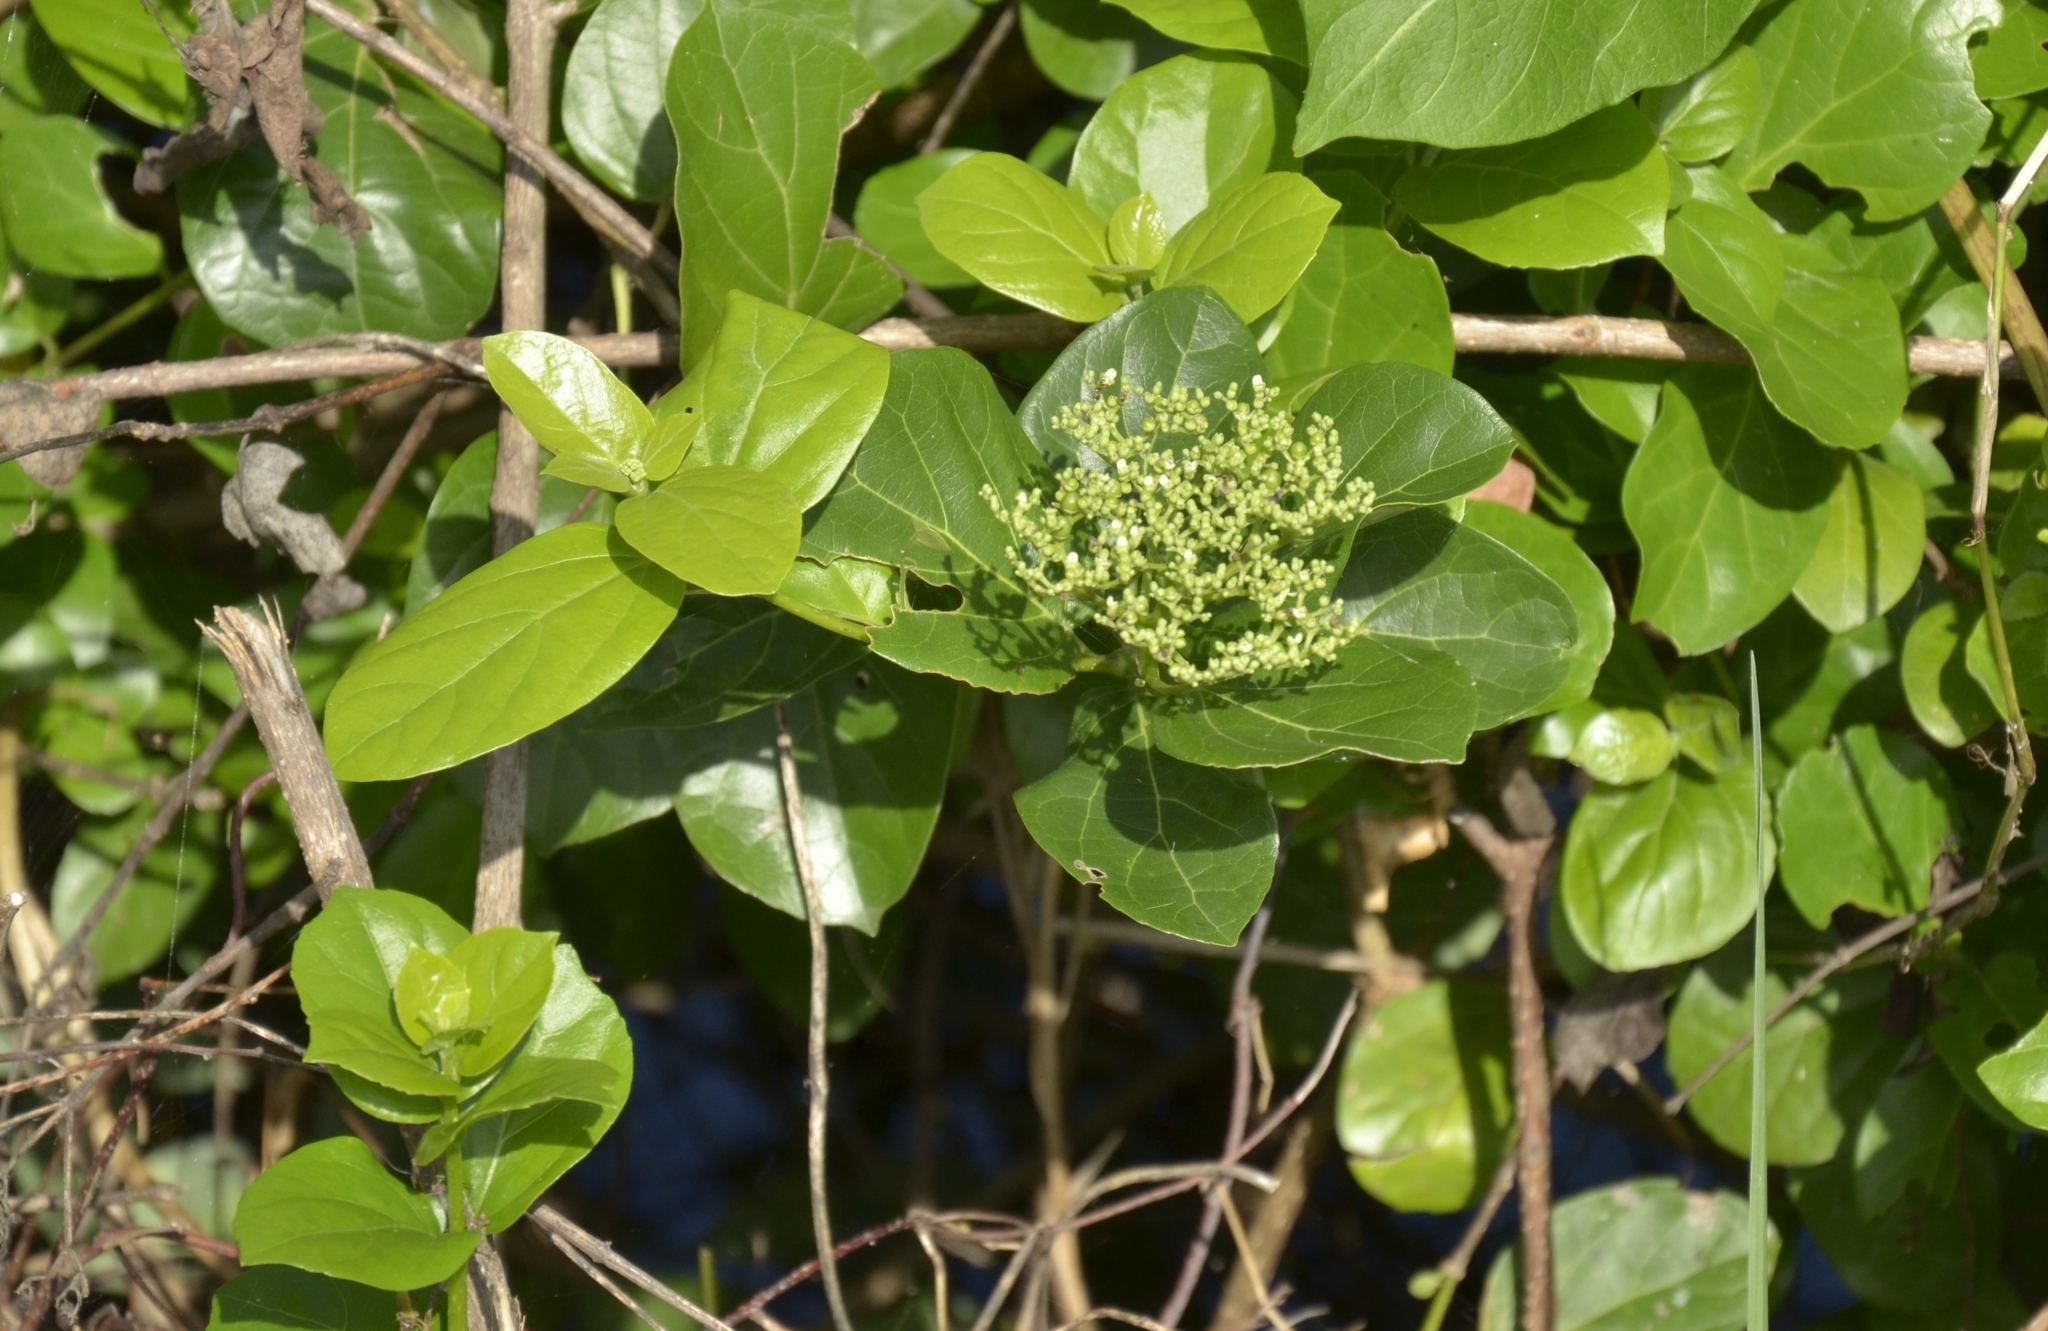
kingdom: Plantae
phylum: Tracheophyta
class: Magnoliopsida
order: Lamiales
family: Lamiaceae
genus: Premna
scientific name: Premna serratifolia
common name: Bastard guelder
